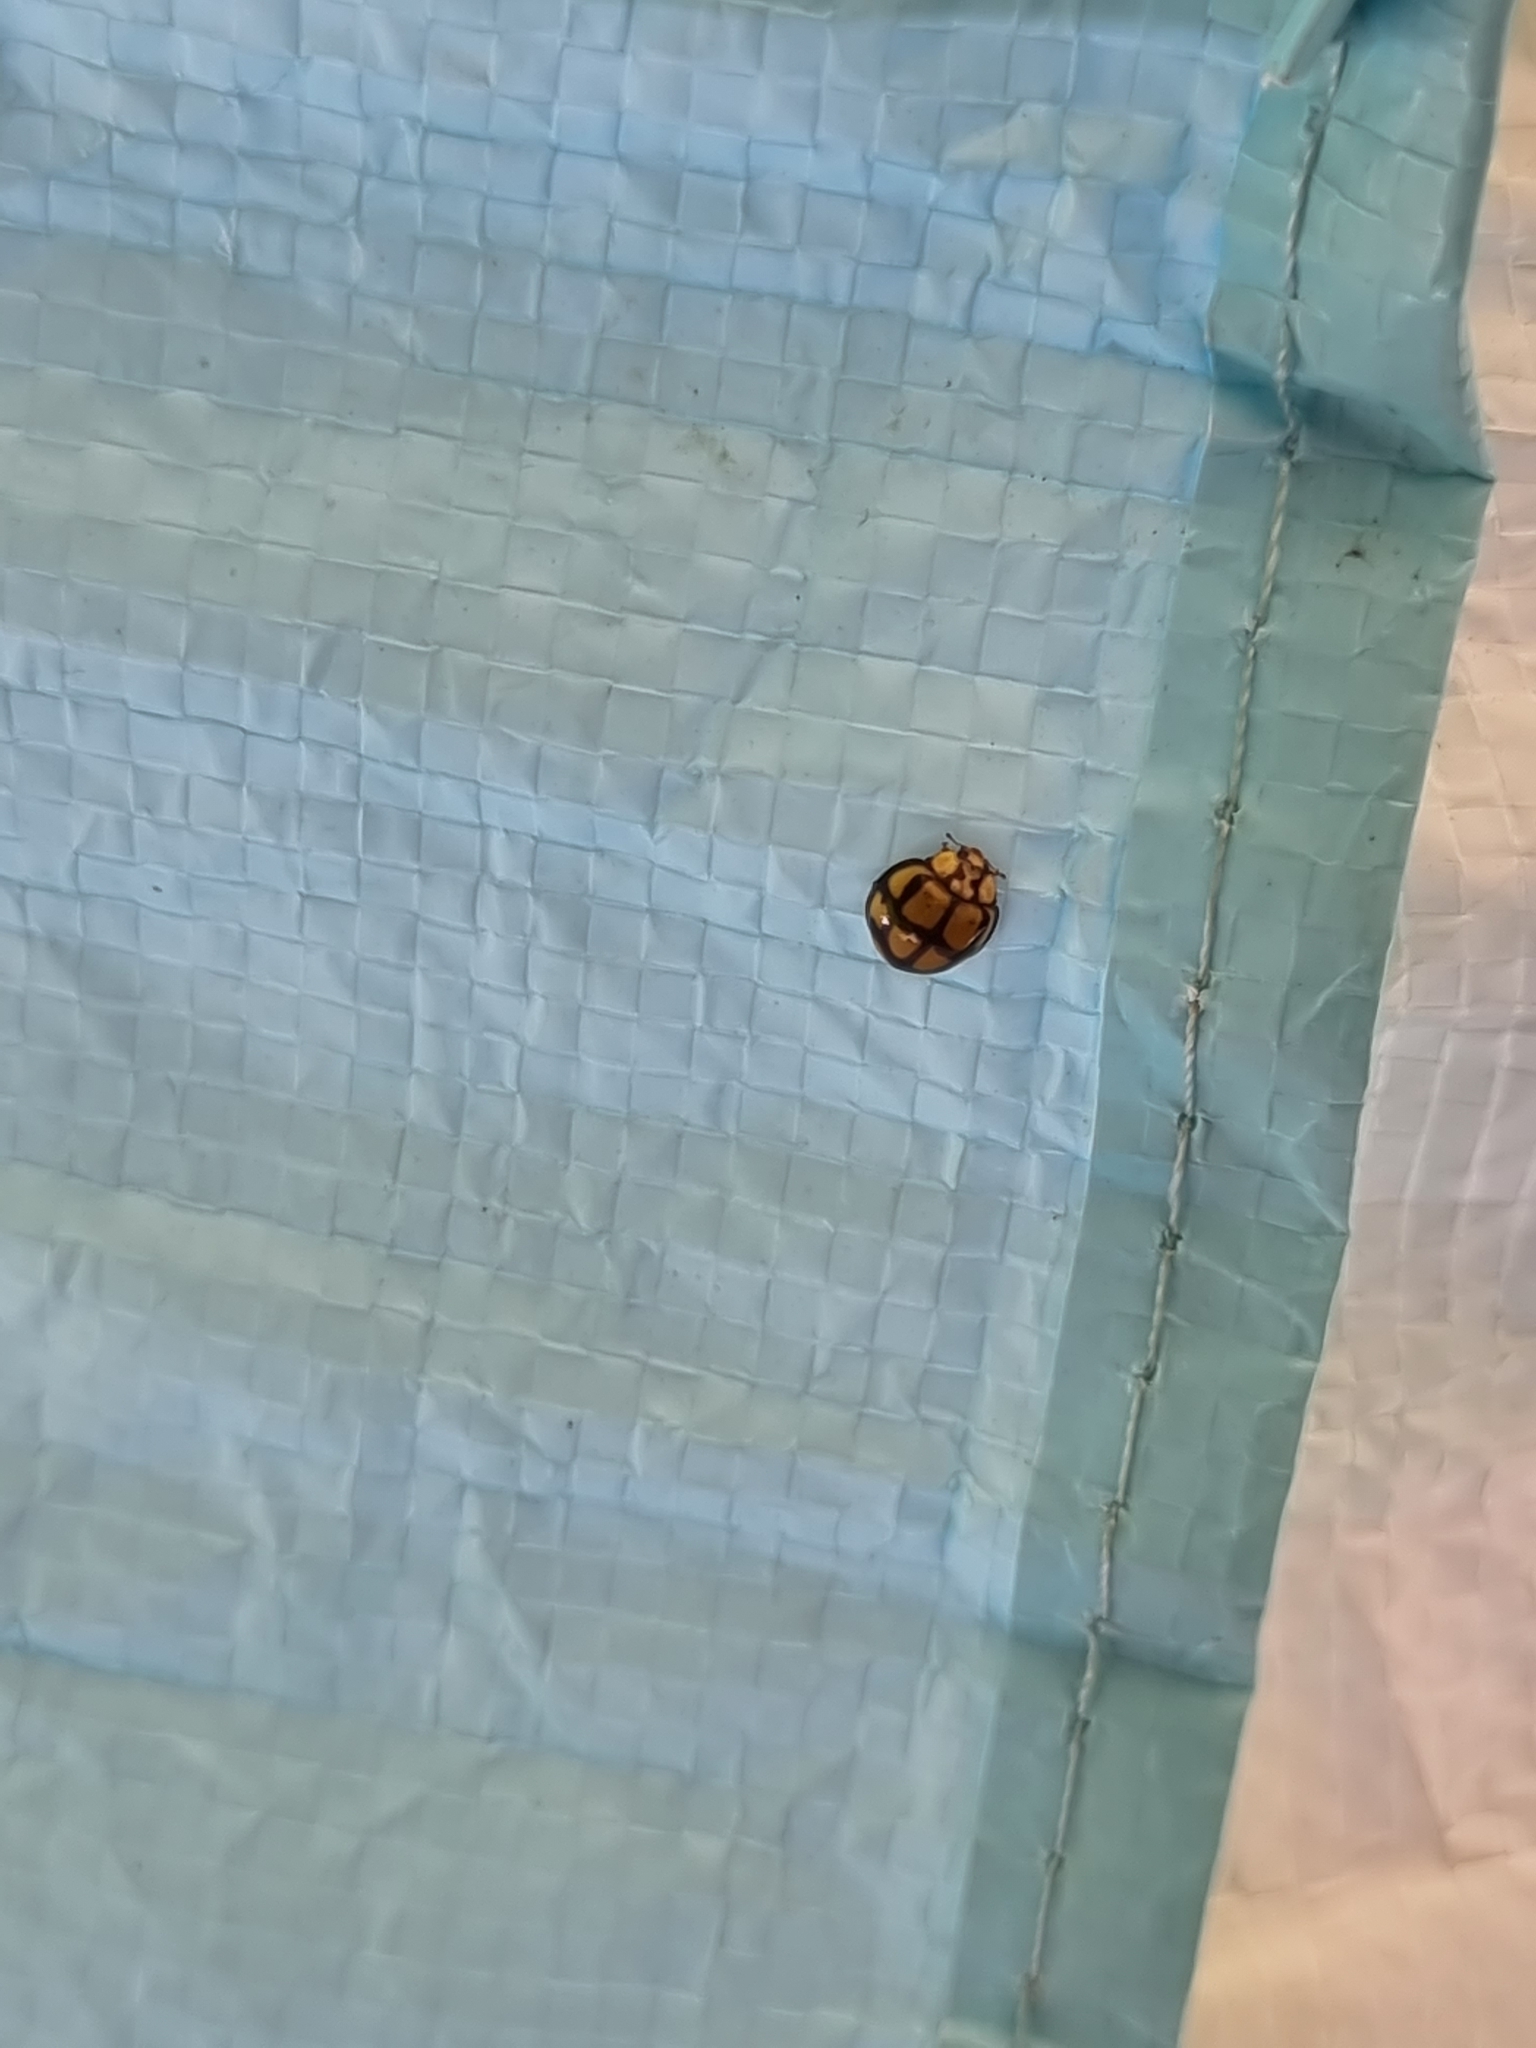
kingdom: Animalia
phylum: Arthropoda
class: Insecta
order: Coleoptera
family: Coccinellidae
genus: Harmonia
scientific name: Harmonia
